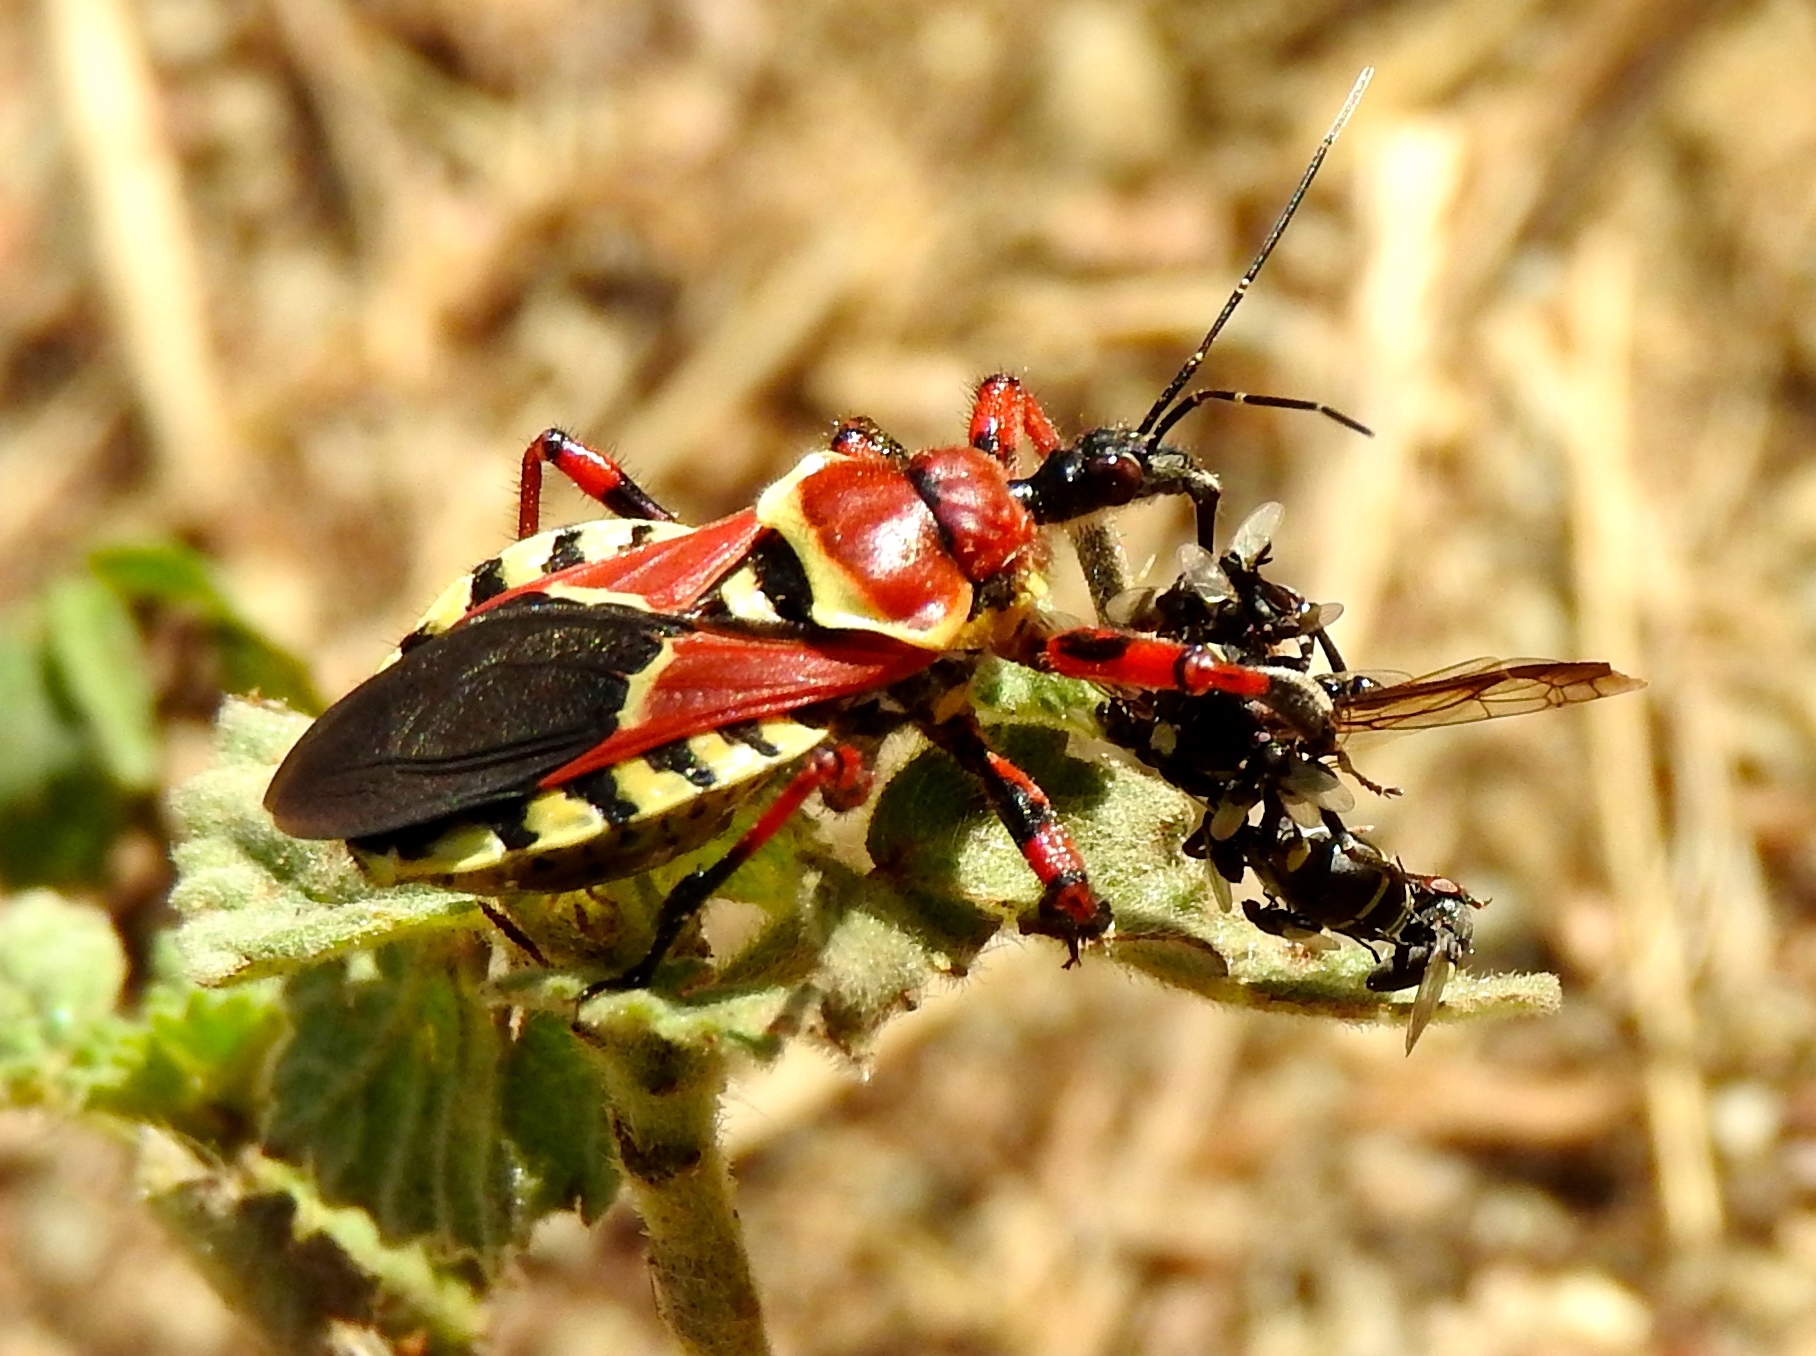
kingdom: Animalia
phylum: Arthropoda
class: Insecta
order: Hemiptera
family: Reduviidae
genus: Apiomerus
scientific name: Apiomerus flaviventris
